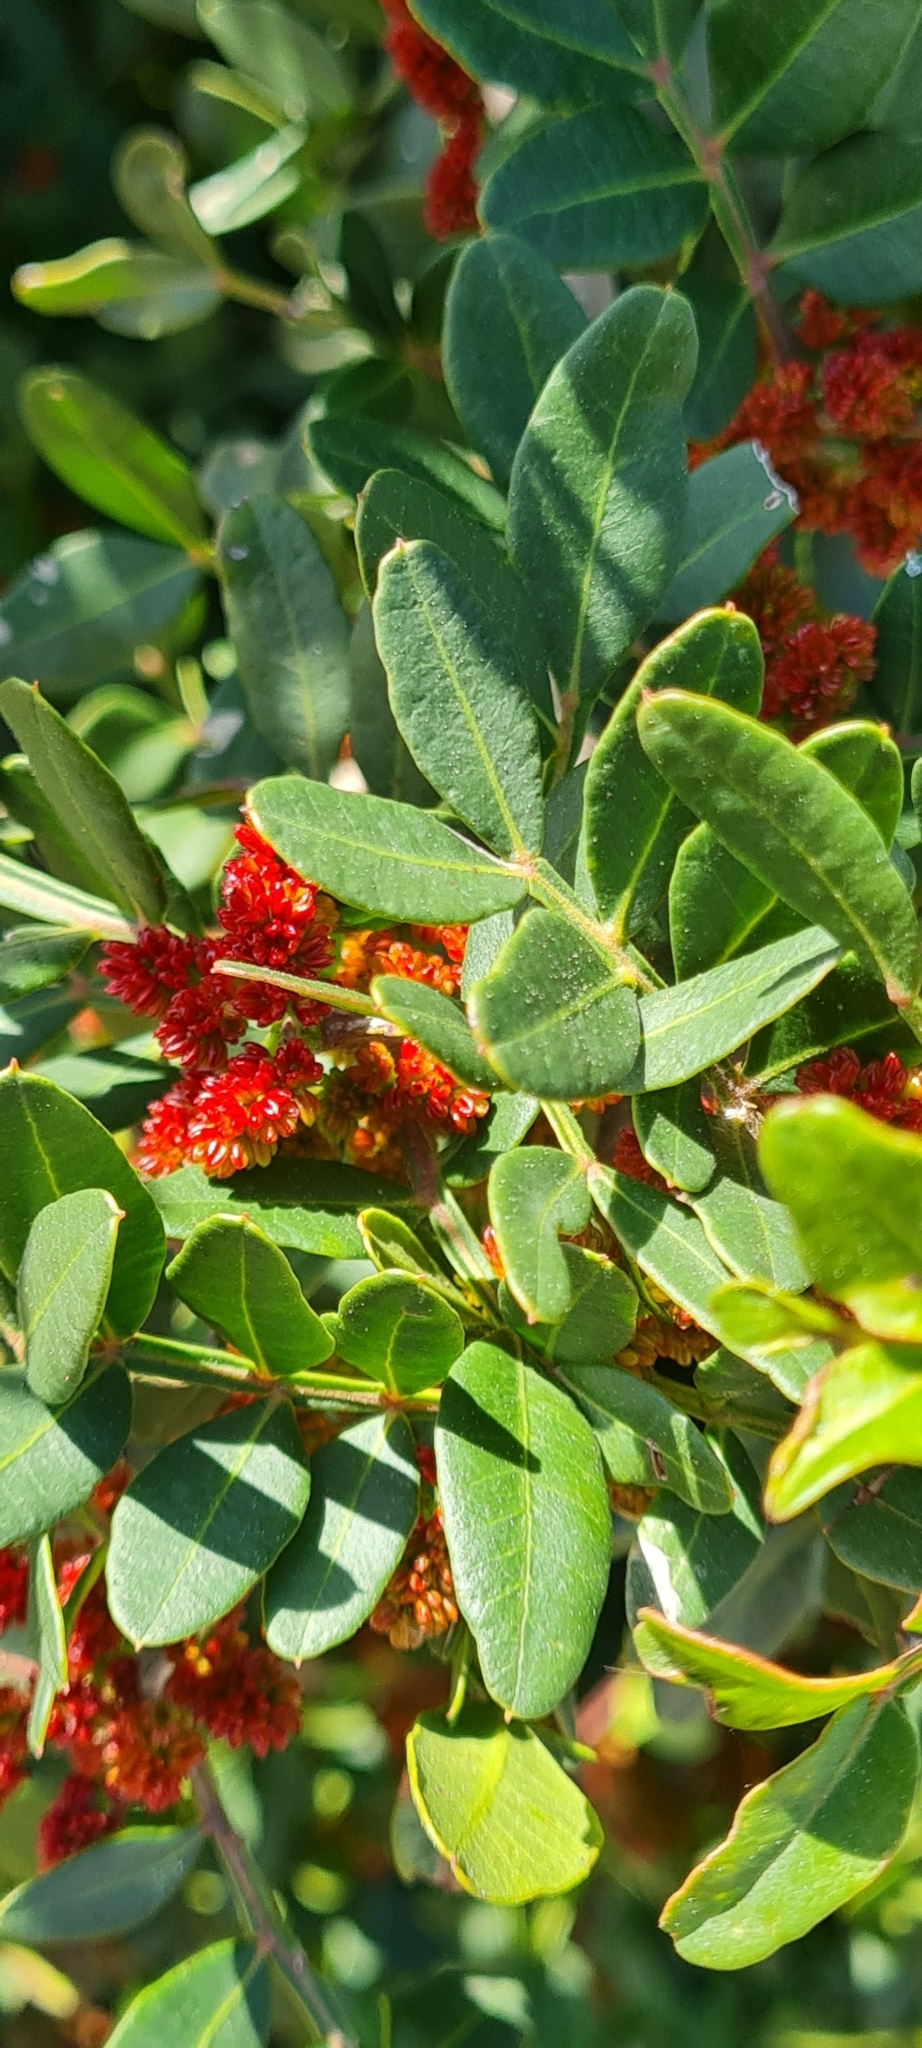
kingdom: Plantae
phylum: Tracheophyta
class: Magnoliopsida
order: Sapindales
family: Anacardiaceae
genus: Pistacia
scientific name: Pistacia lentiscus
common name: Lentisk
